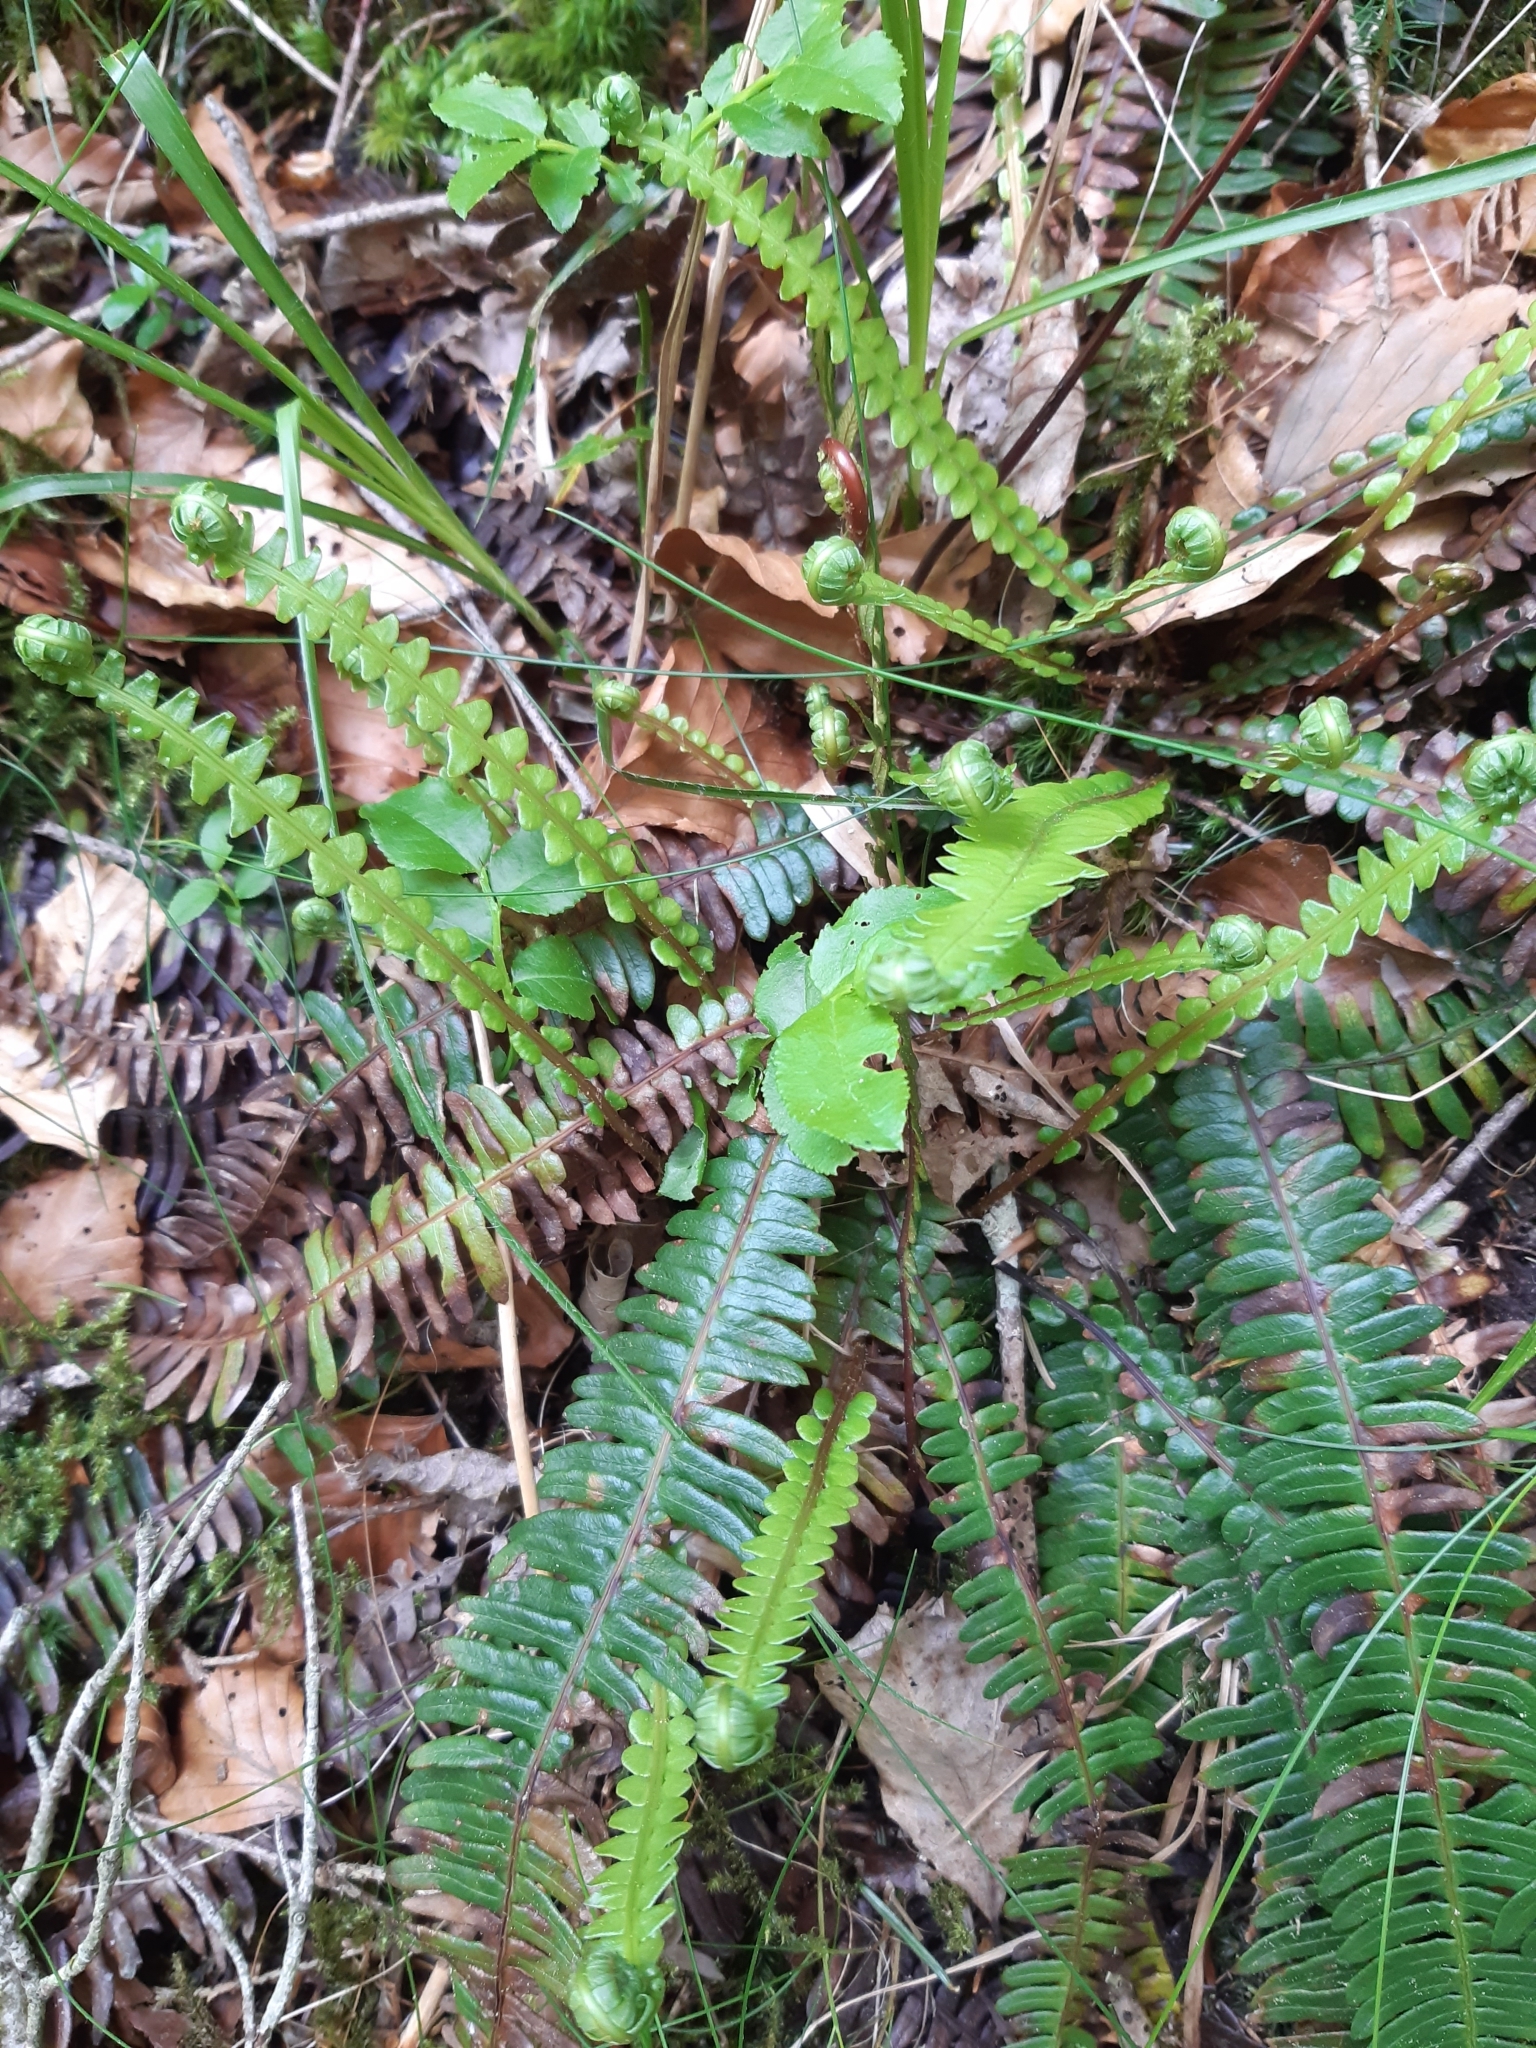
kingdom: Plantae
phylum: Tracheophyta
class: Polypodiopsida
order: Polypodiales
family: Blechnaceae
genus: Struthiopteris
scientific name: Struthiopteris spicant
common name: Deer fern
